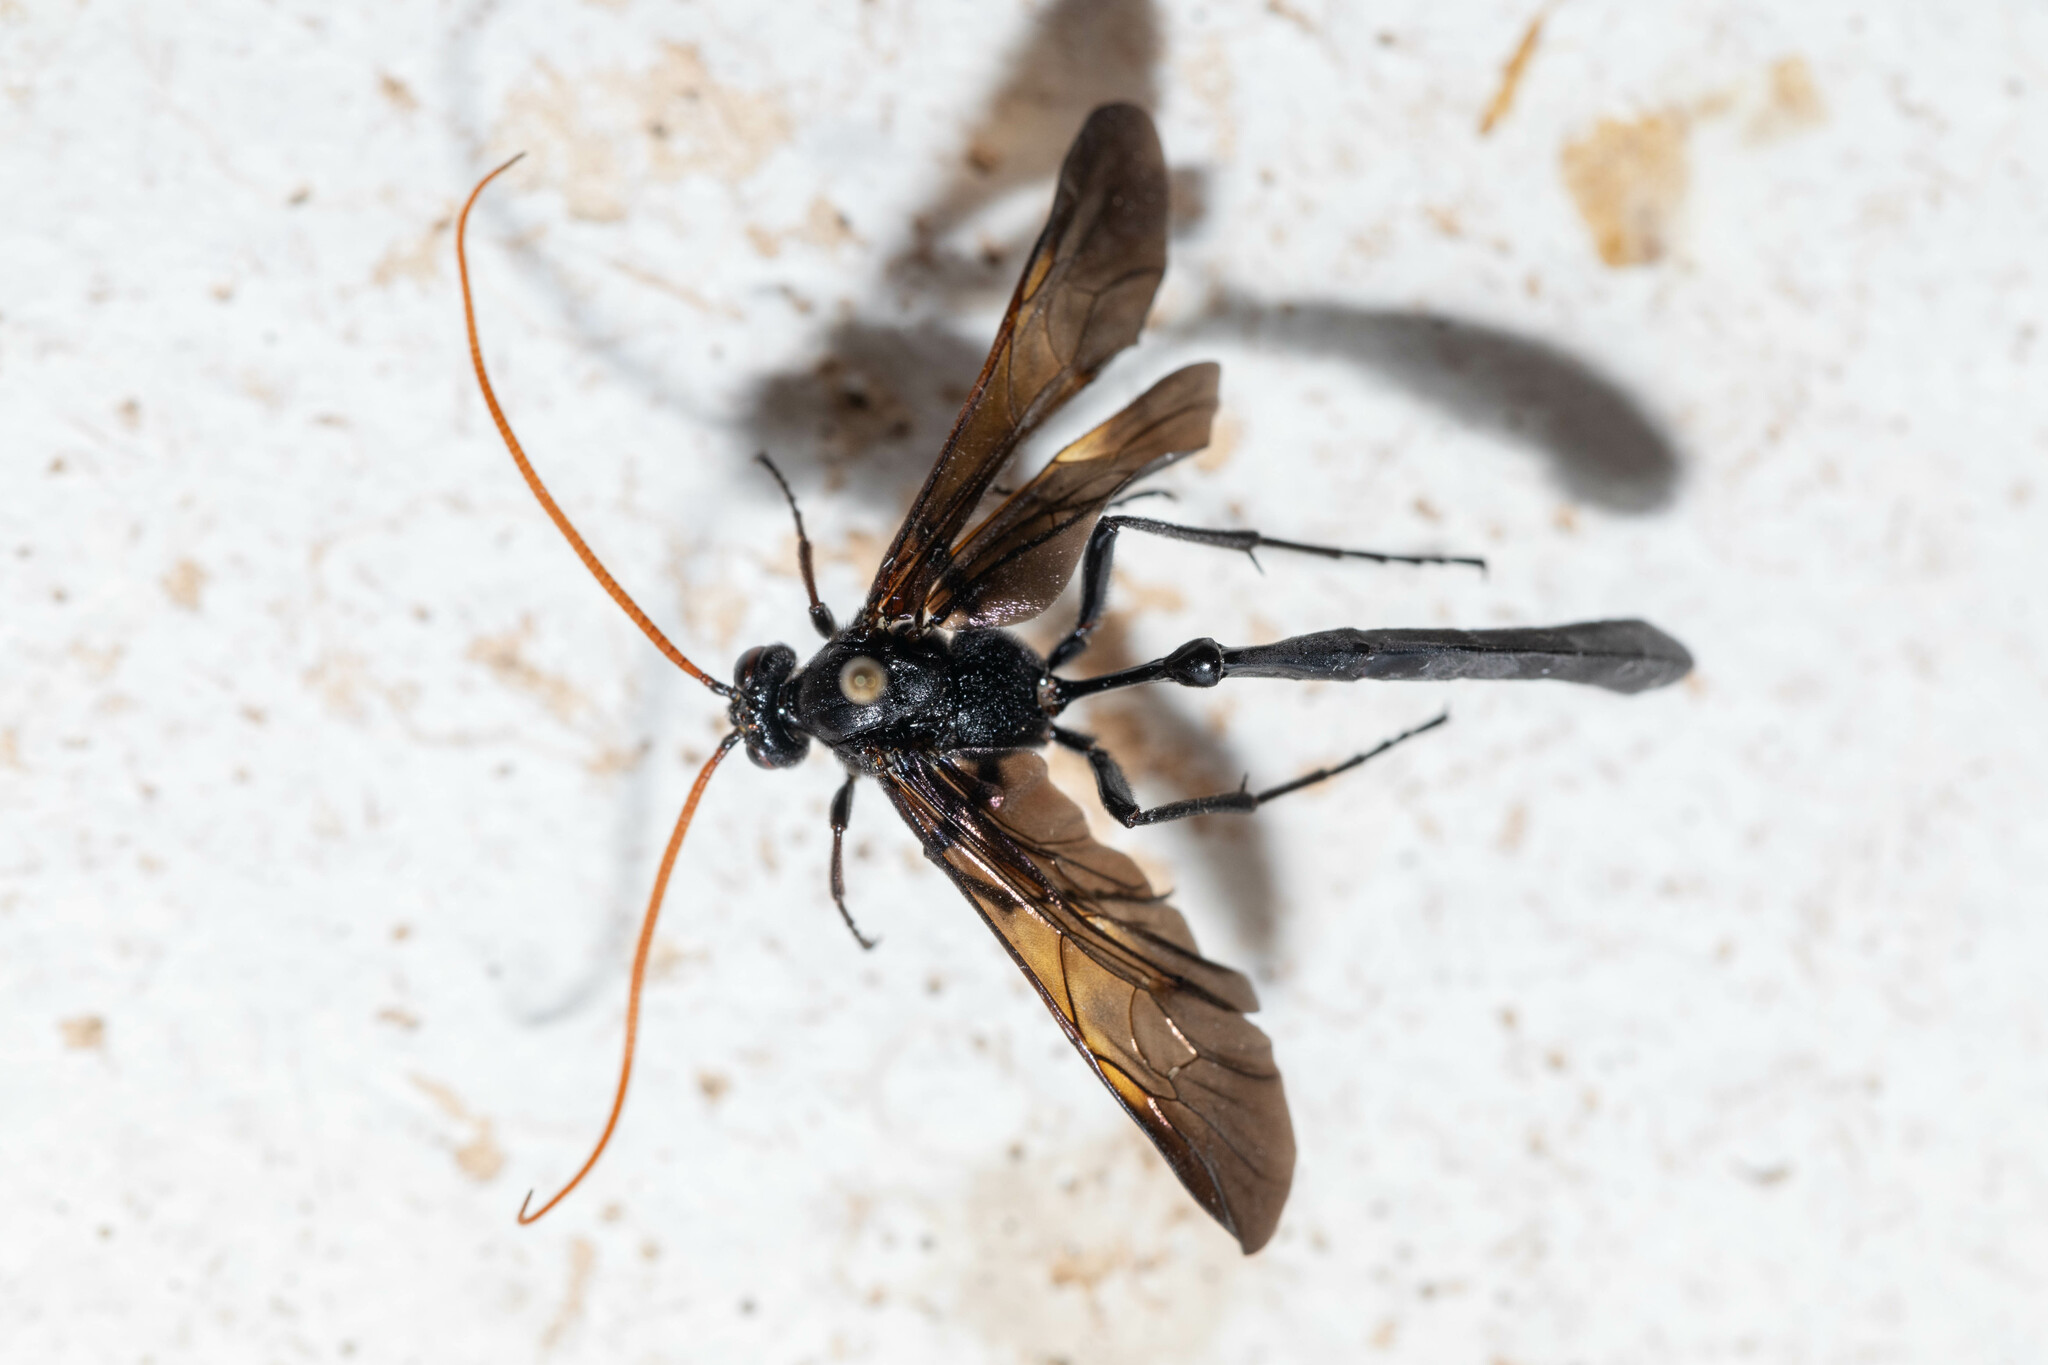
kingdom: Animalia
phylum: Arthropoda
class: Insecta
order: Hymenoptera
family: Ichneumonidae
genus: Thyreodon
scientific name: Thyreodon atricolor
